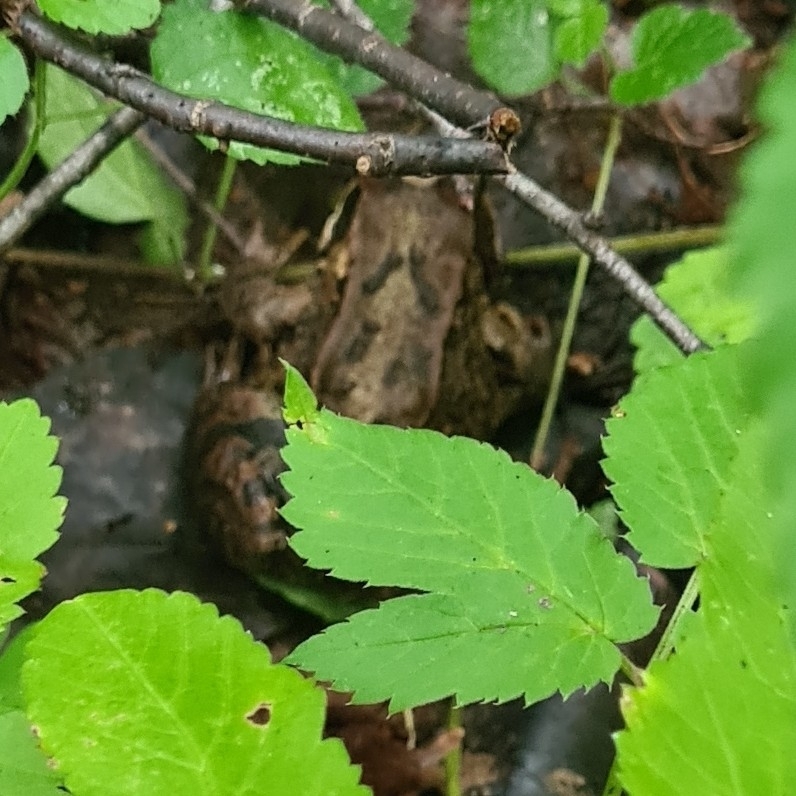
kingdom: Animalia
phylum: Chordata
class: Amphibia
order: Anura
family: Ranidae
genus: Rana
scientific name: Rana temporaria
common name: Common frog
